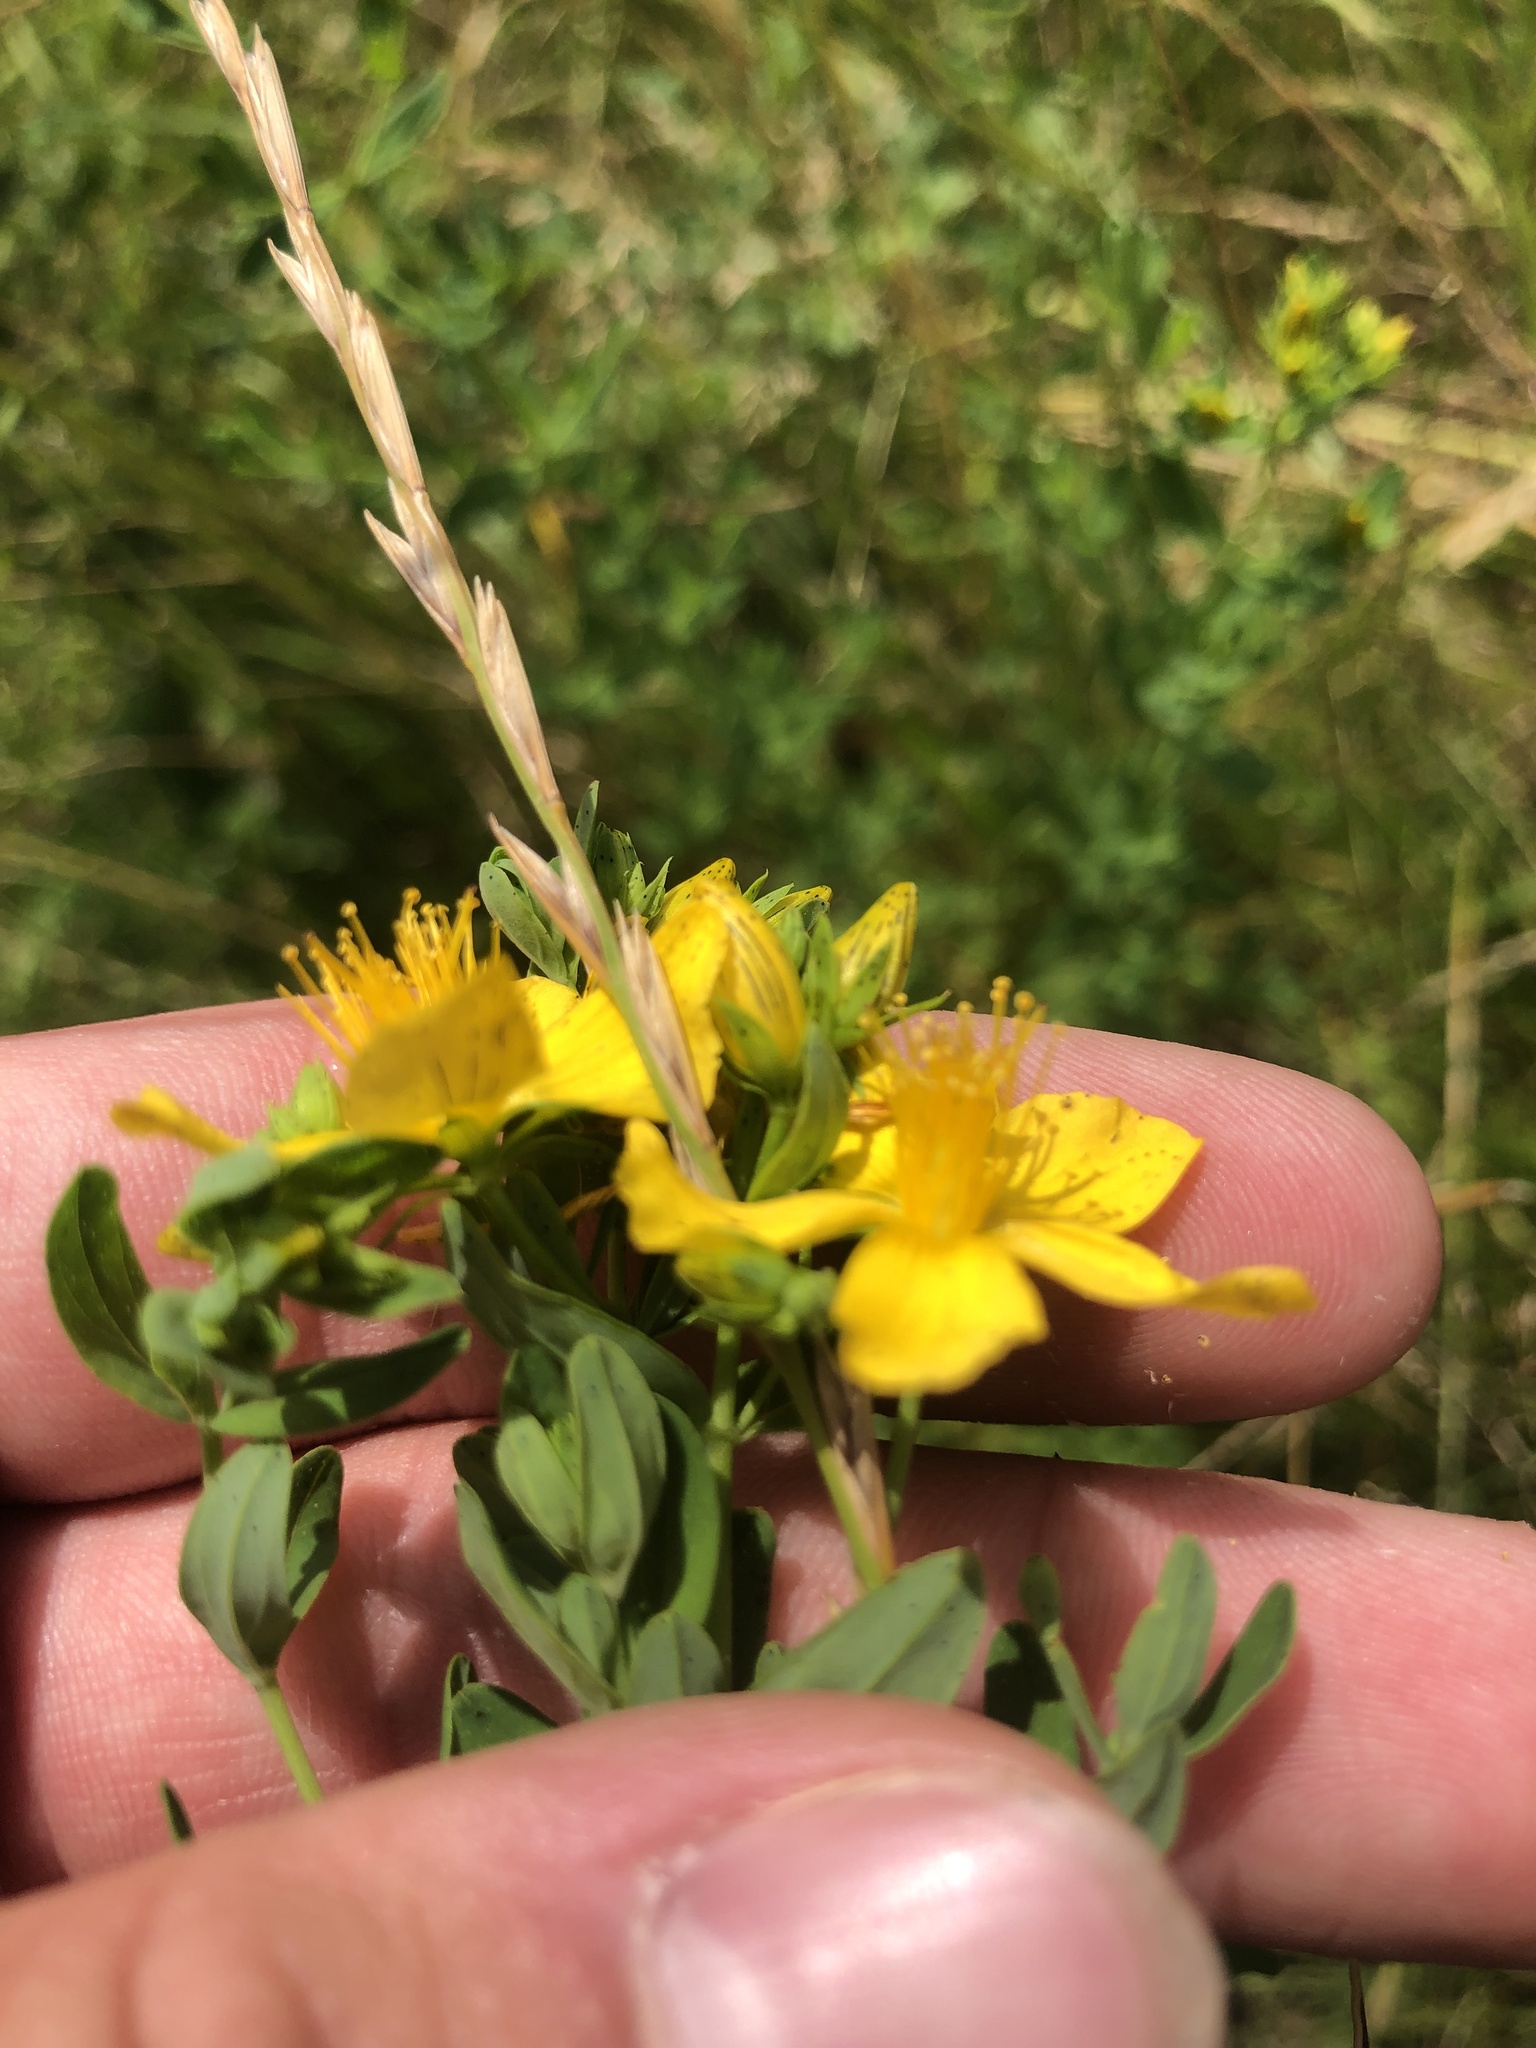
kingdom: Plantae
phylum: Tracheophyta
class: Magnoliopsida
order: Malpighiales
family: Hypericaceae
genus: Hypericum
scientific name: Hypericum perforatum
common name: Common st. johnswort
